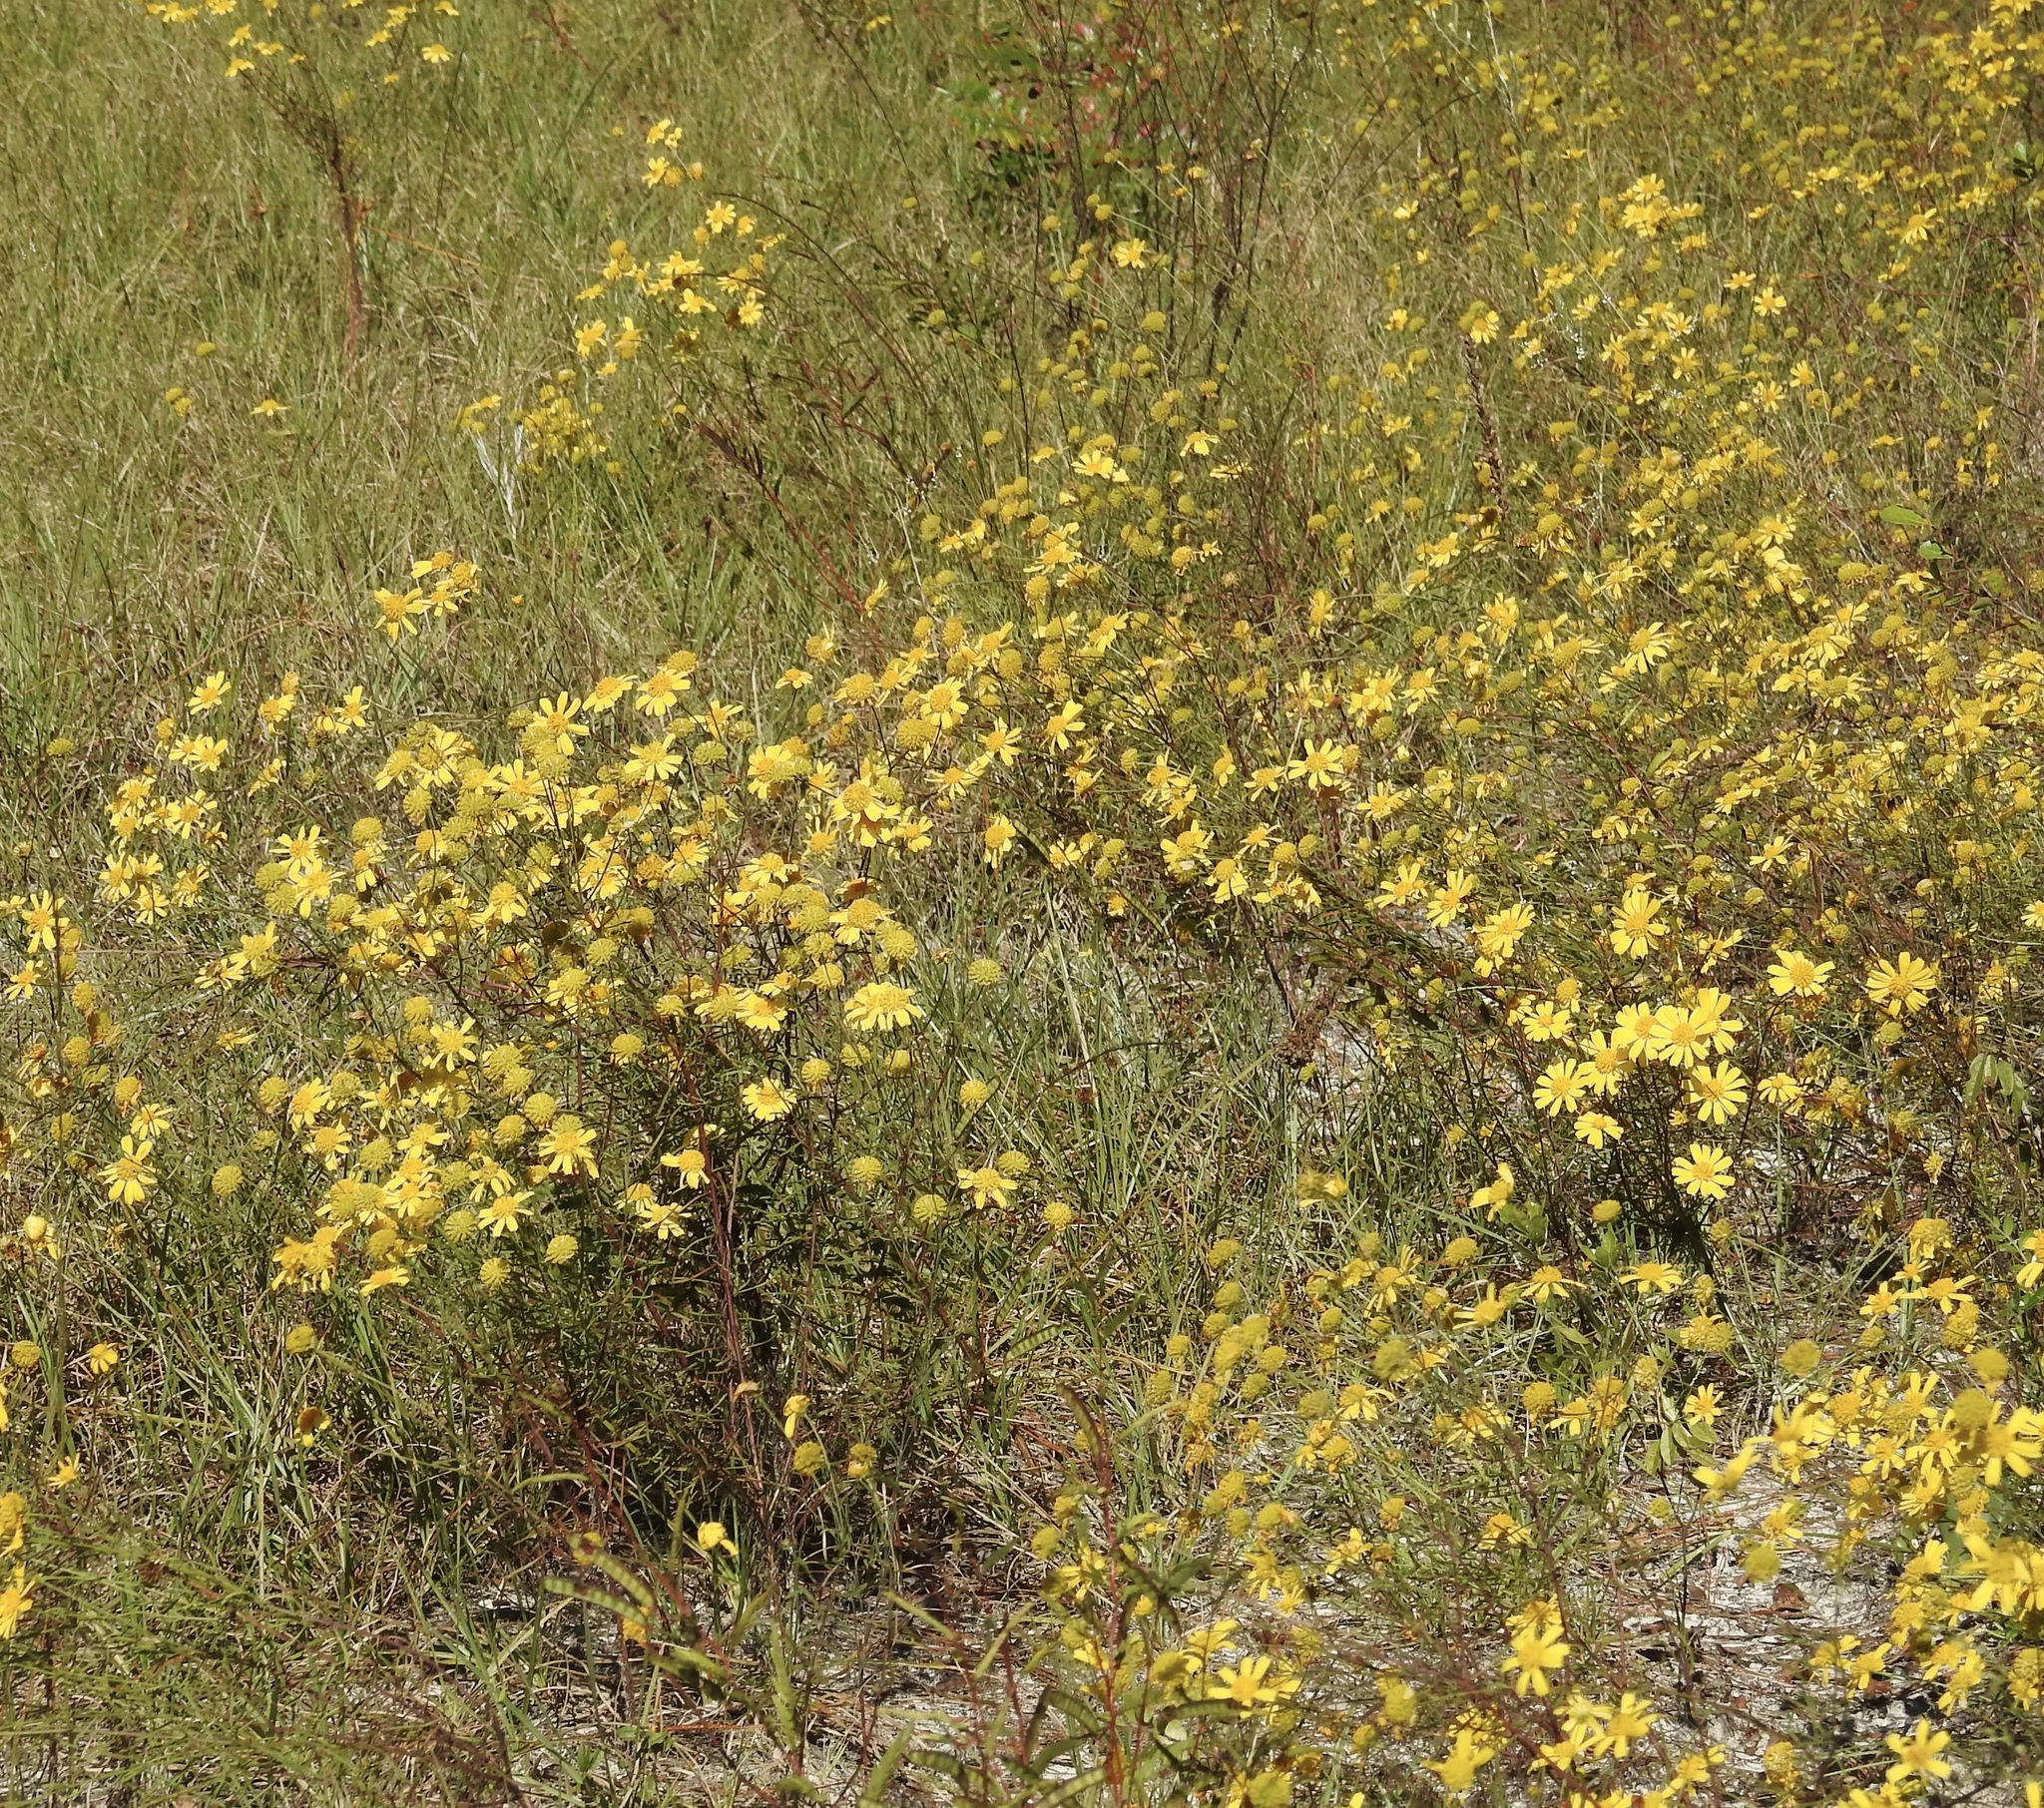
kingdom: Plantae
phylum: Tracheophyta
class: Magnoliopsida
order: Asterales
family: Asteraceae
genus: Balduina
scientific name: Balduina angustifolia
